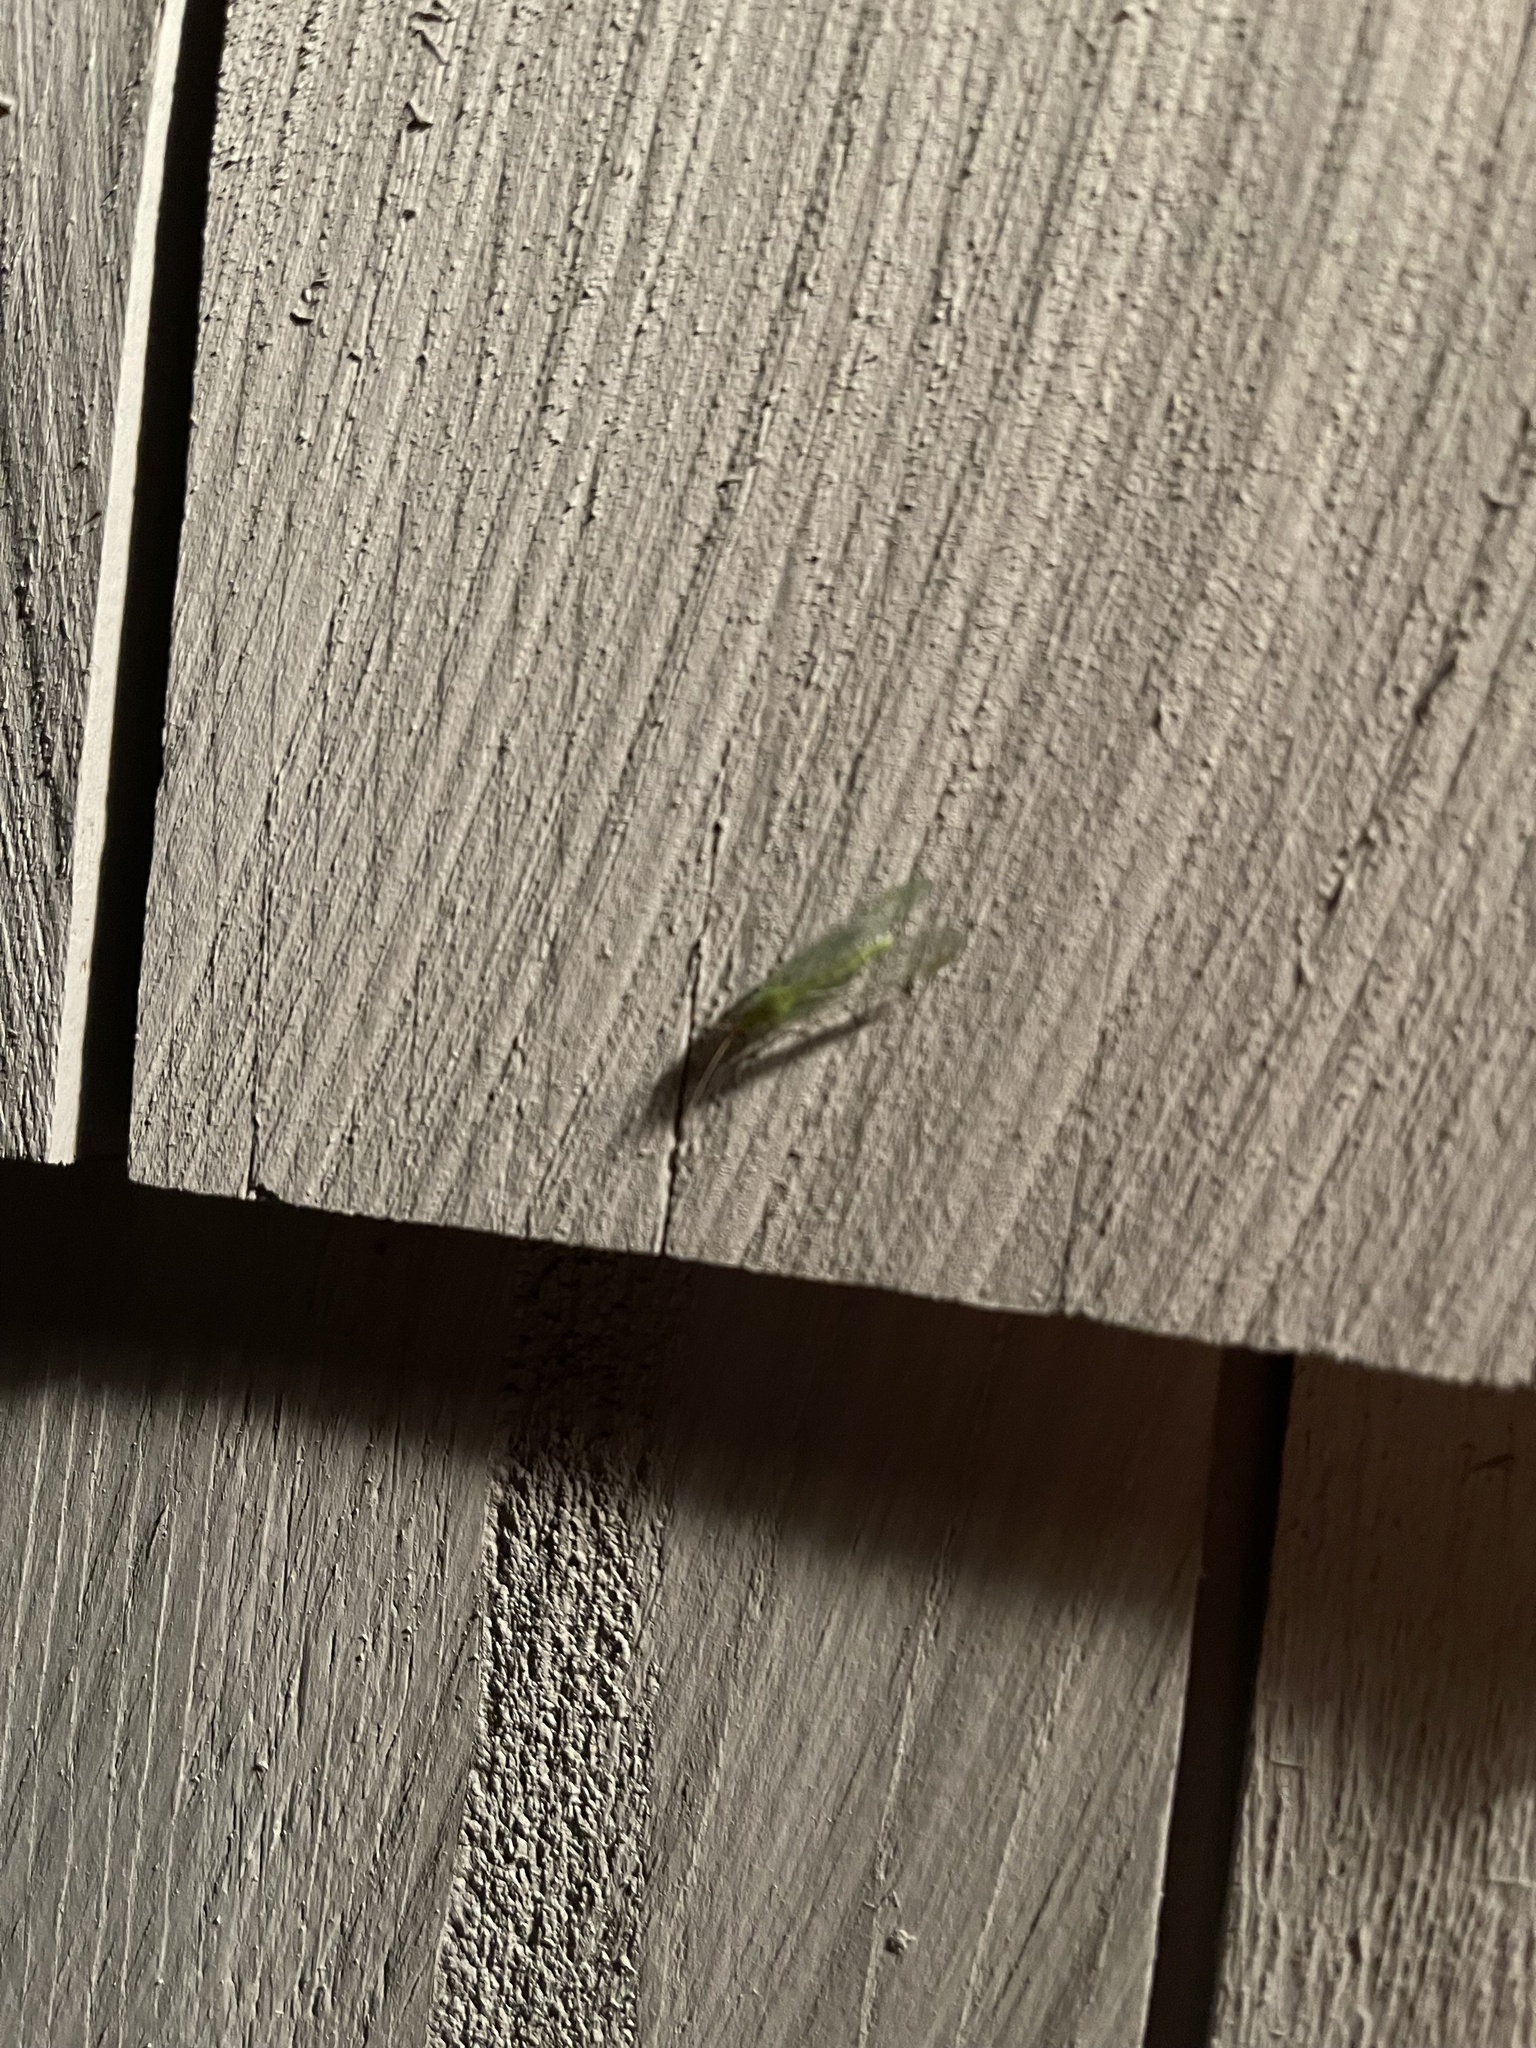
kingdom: Animalia
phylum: Arthropoda
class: Insecta
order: Neuroptera
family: Chrysopidae
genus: Chrysopa
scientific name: Chrysopa oculata
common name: Golden-eyed lacewing
